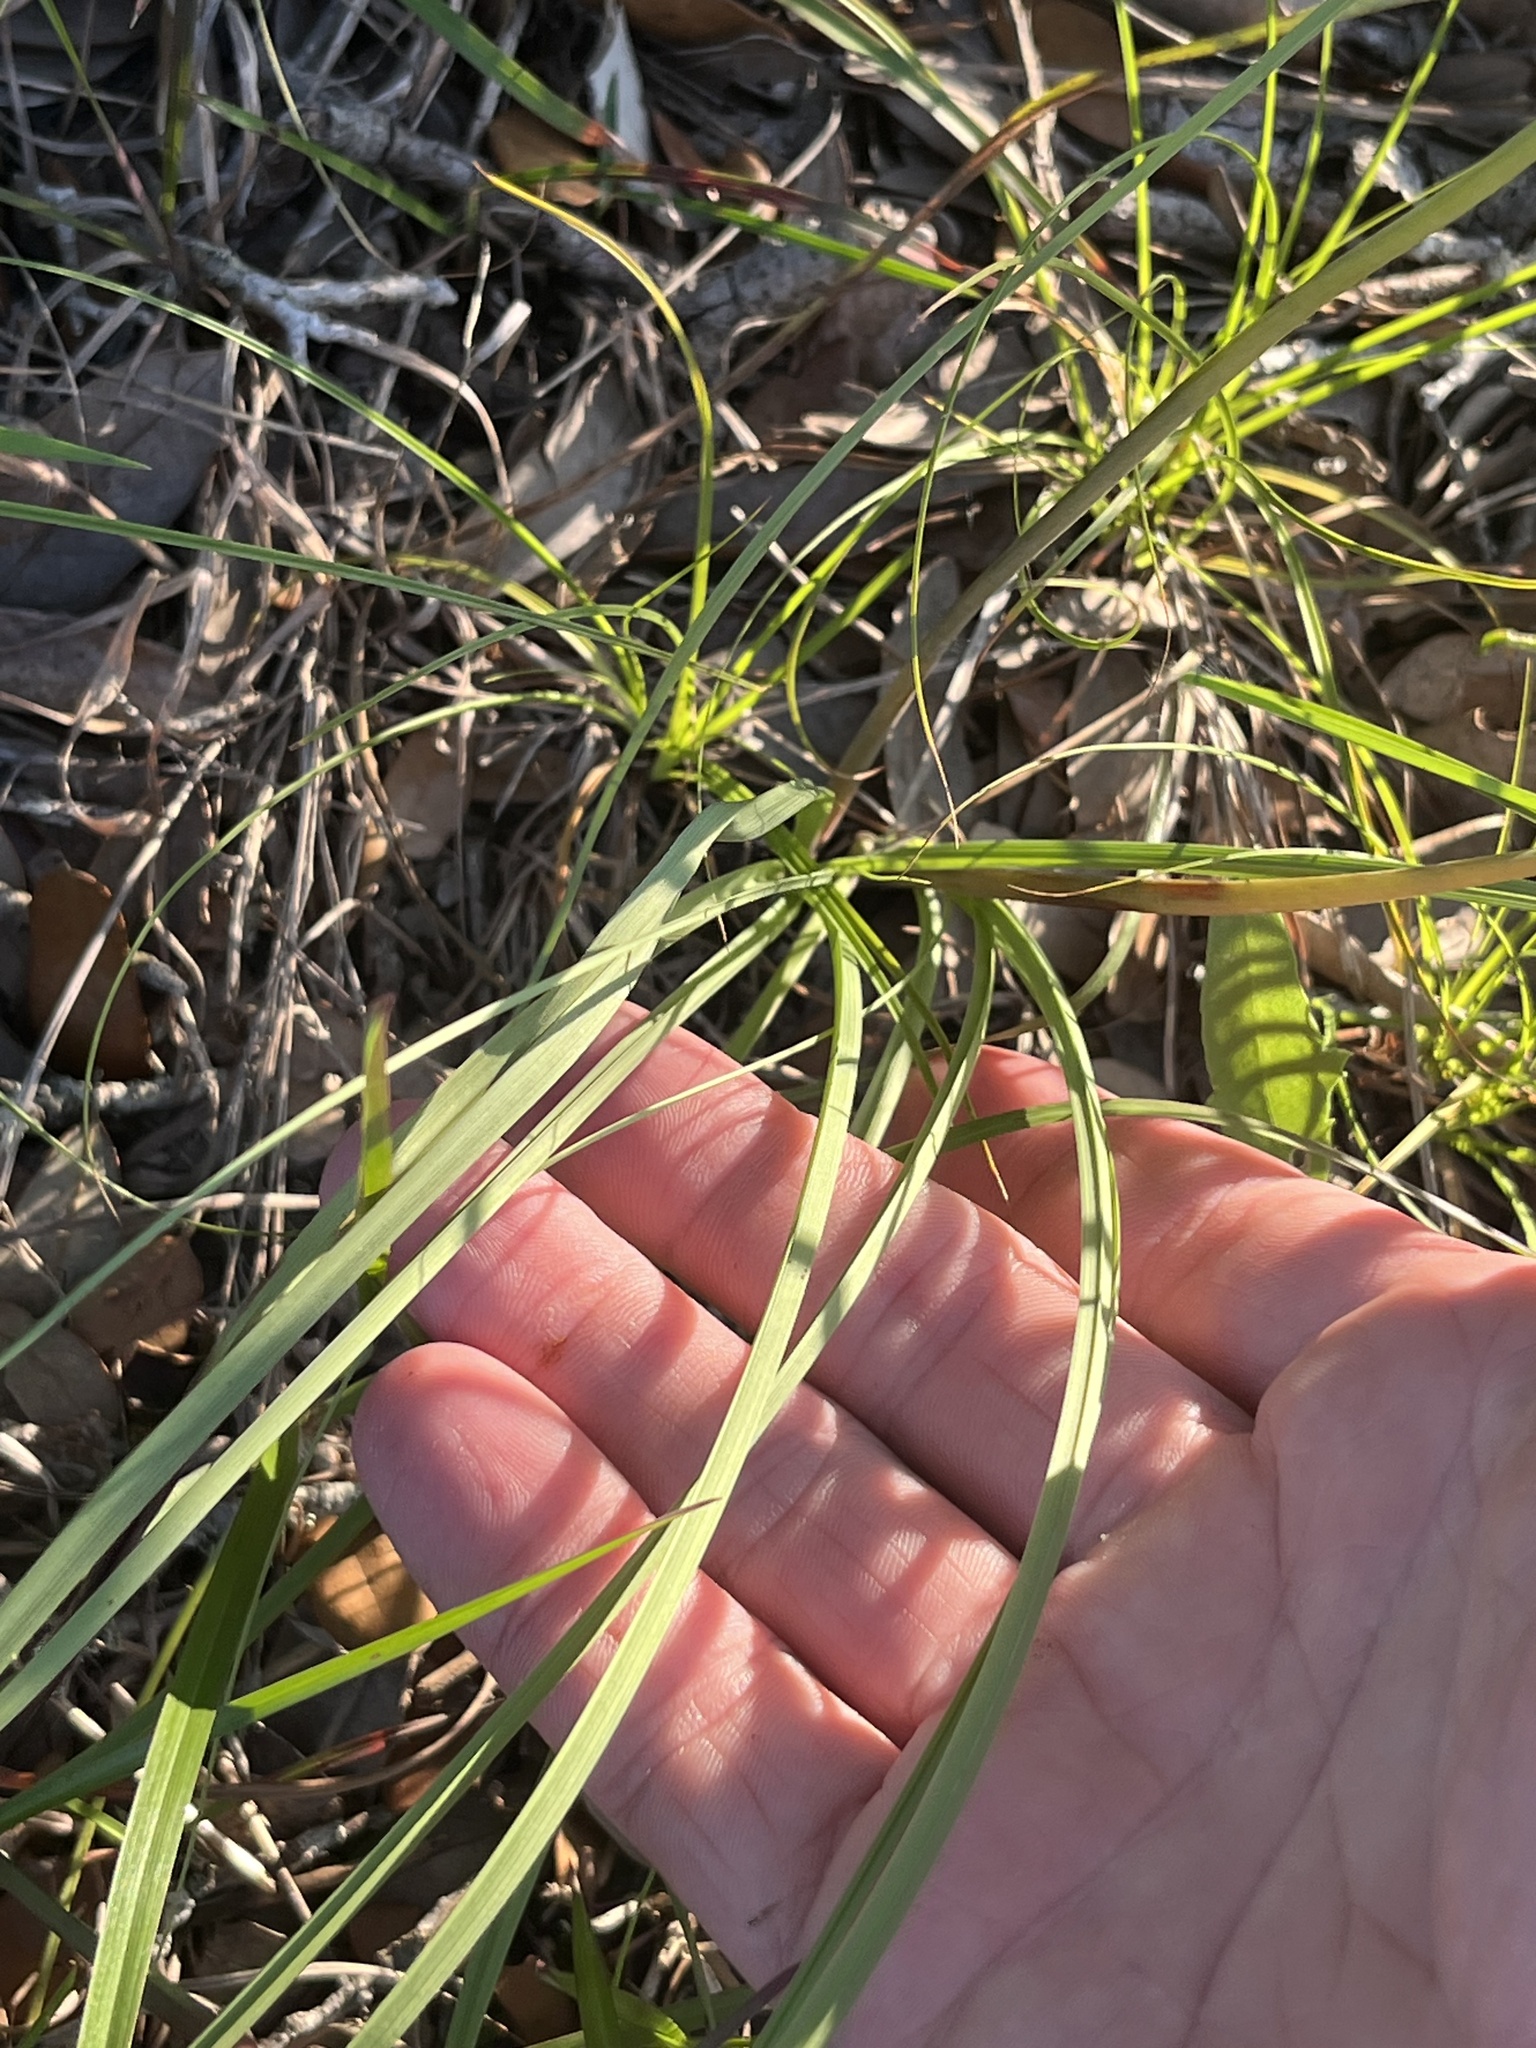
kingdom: Plantae
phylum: Tracheophyta
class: Liliopsida
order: Liliales
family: Melanthiaceae
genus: Schoenocaulon
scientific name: Schoenocaulon texanum
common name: Texas feather-shank
